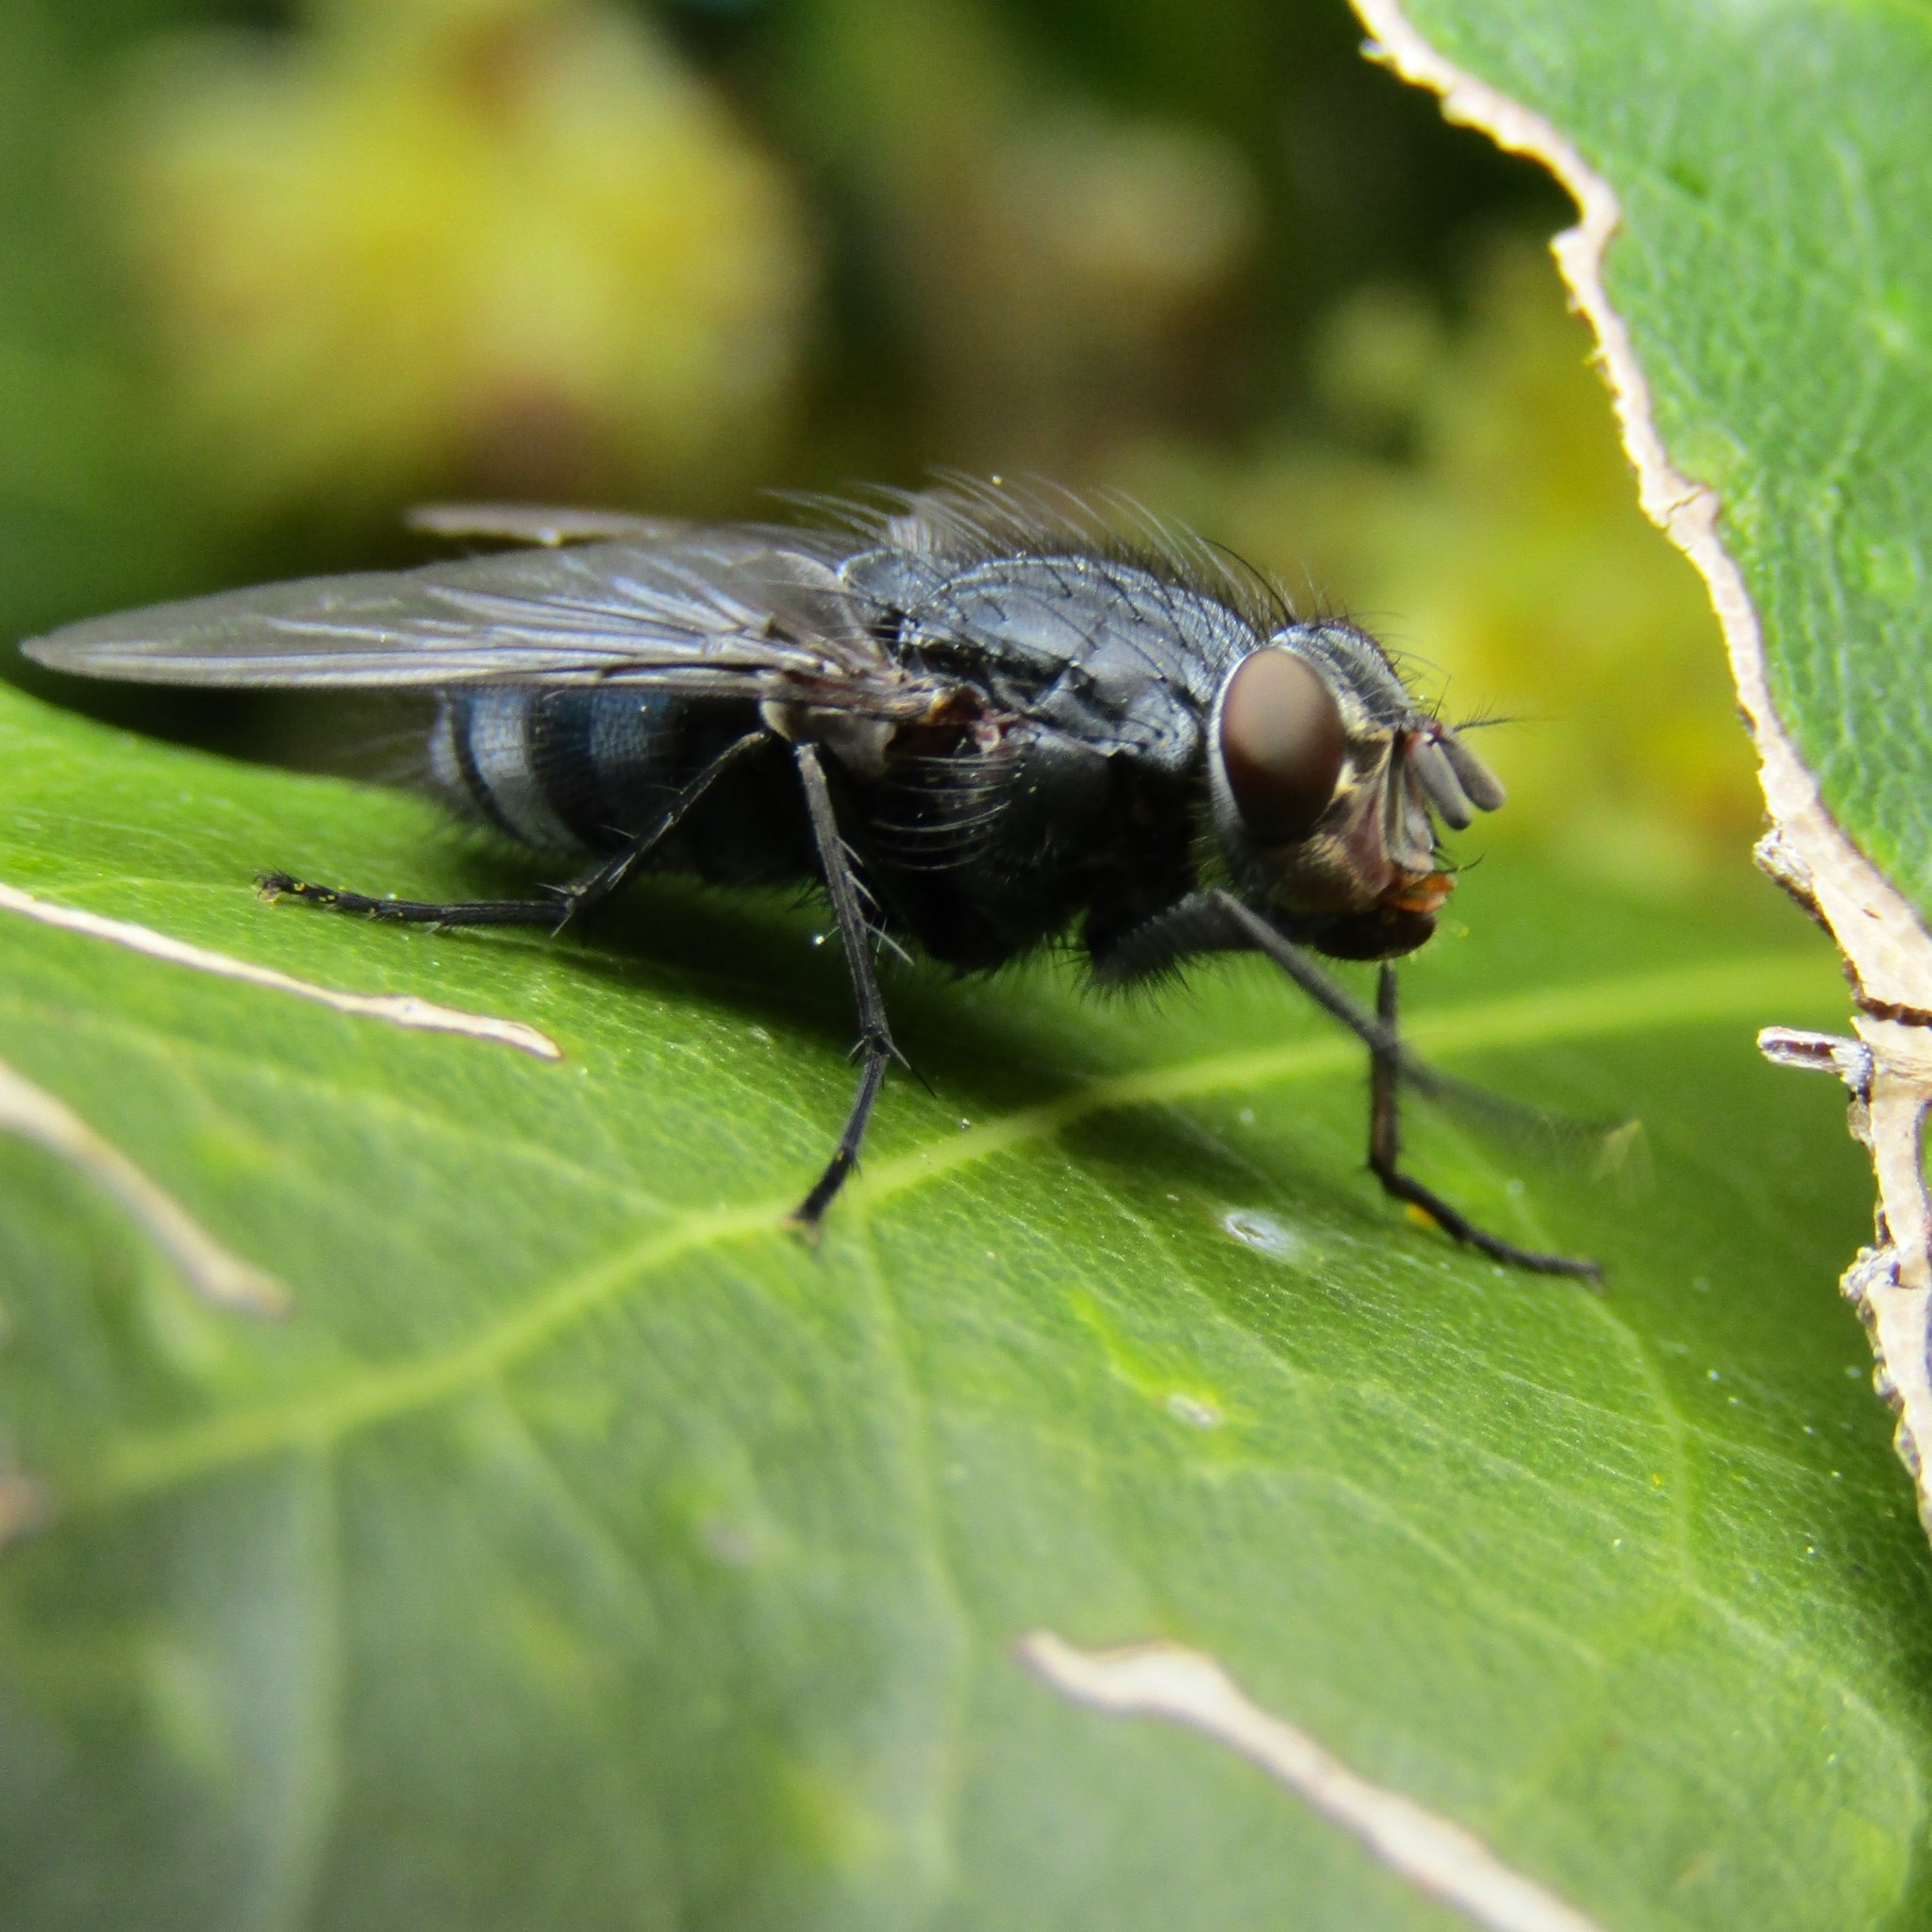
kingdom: Animalia
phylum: Arthropoda
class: Insecta
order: Diptera
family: Calliphoridae
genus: Calliphora
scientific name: Calliphora vicina
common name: Common blow flie
